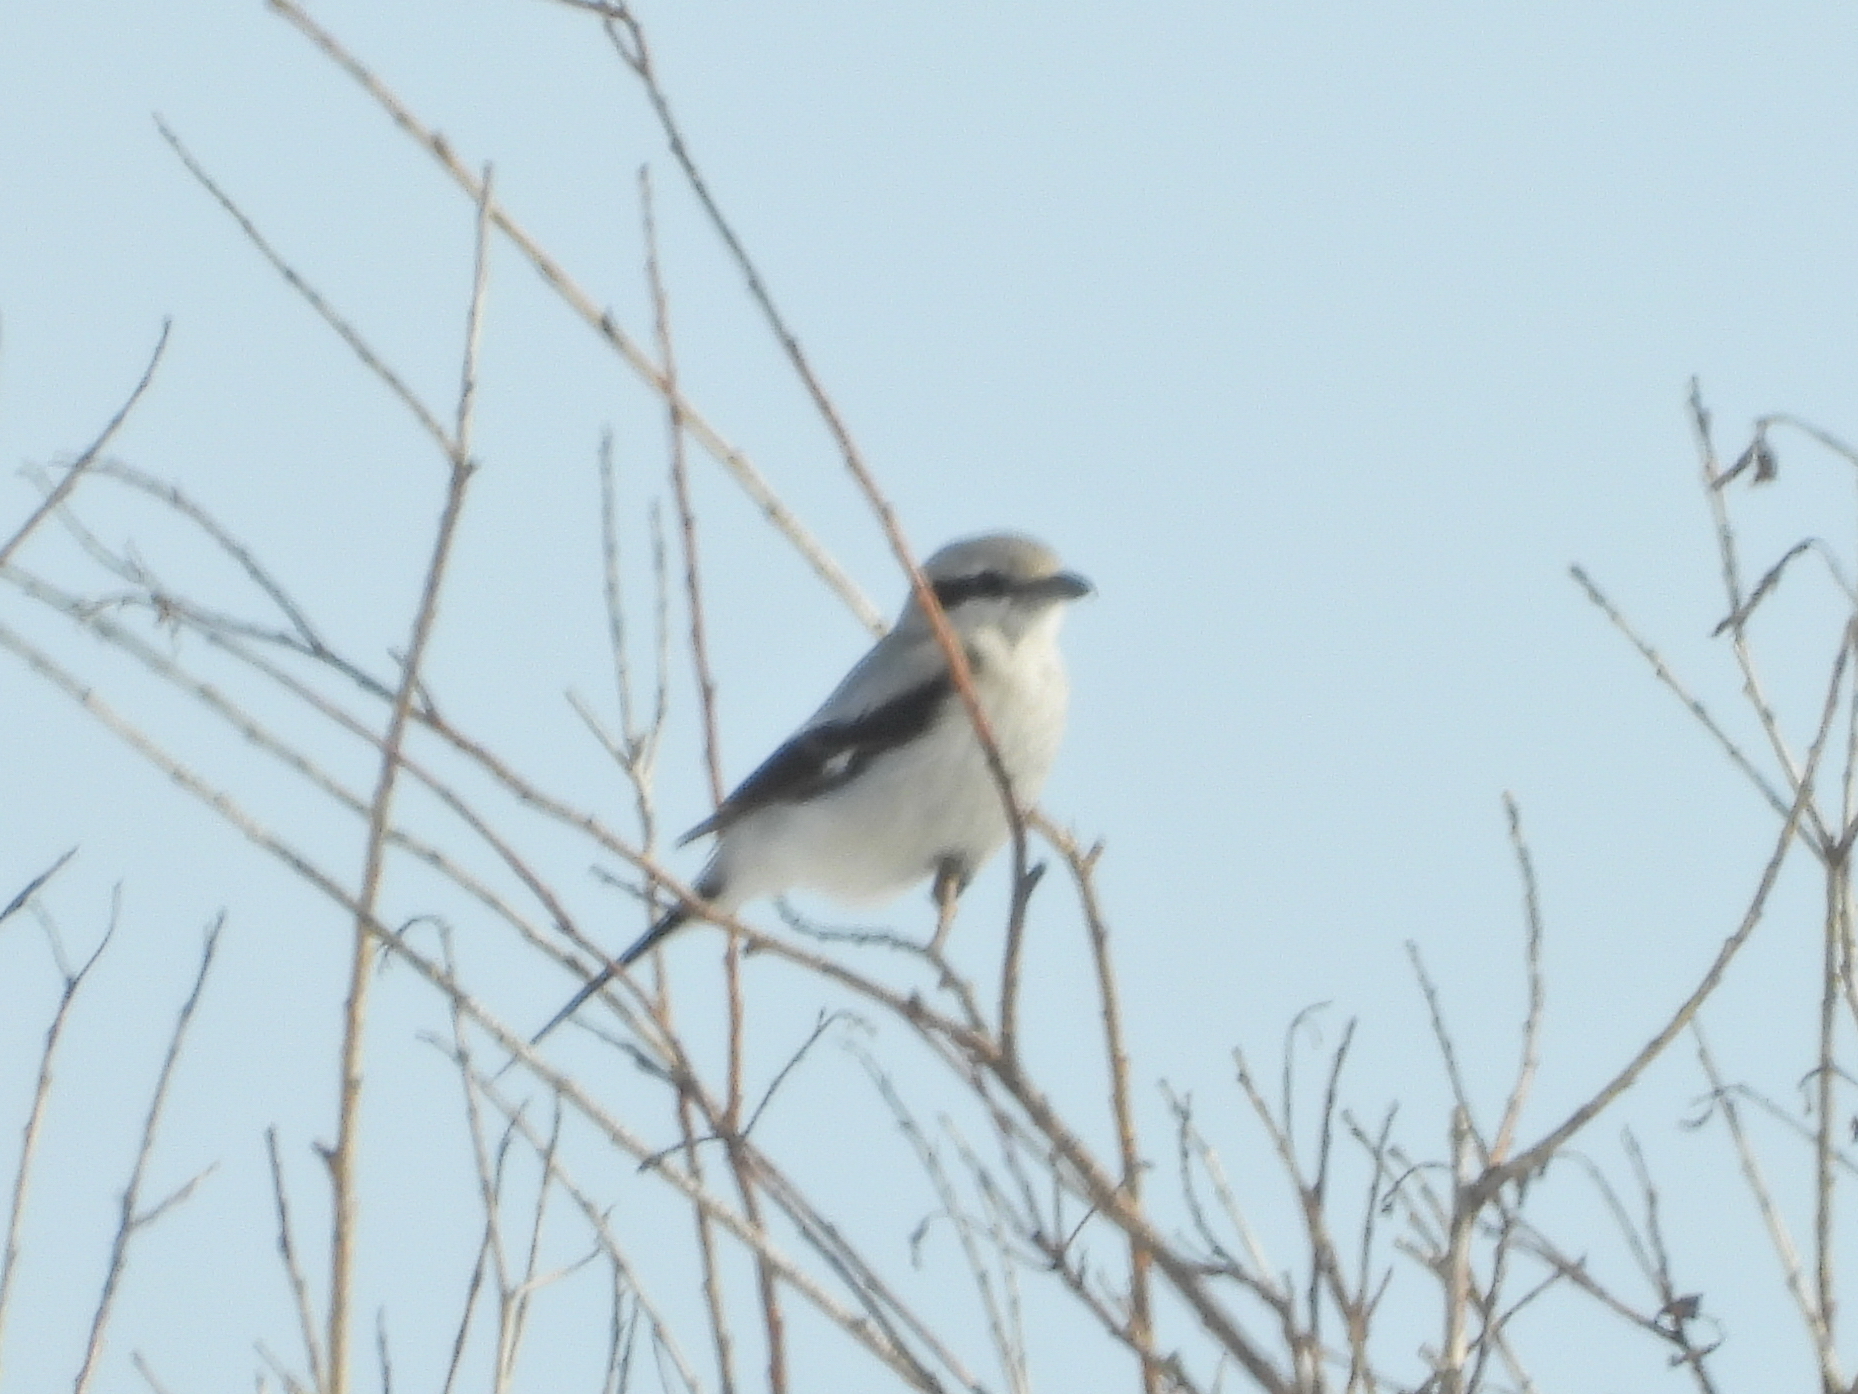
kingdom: Animalia
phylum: Chordata
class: Aves
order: Passeriformes
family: Laniidae
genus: Lanius
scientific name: Lanius excubitor
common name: Great grey shrike
